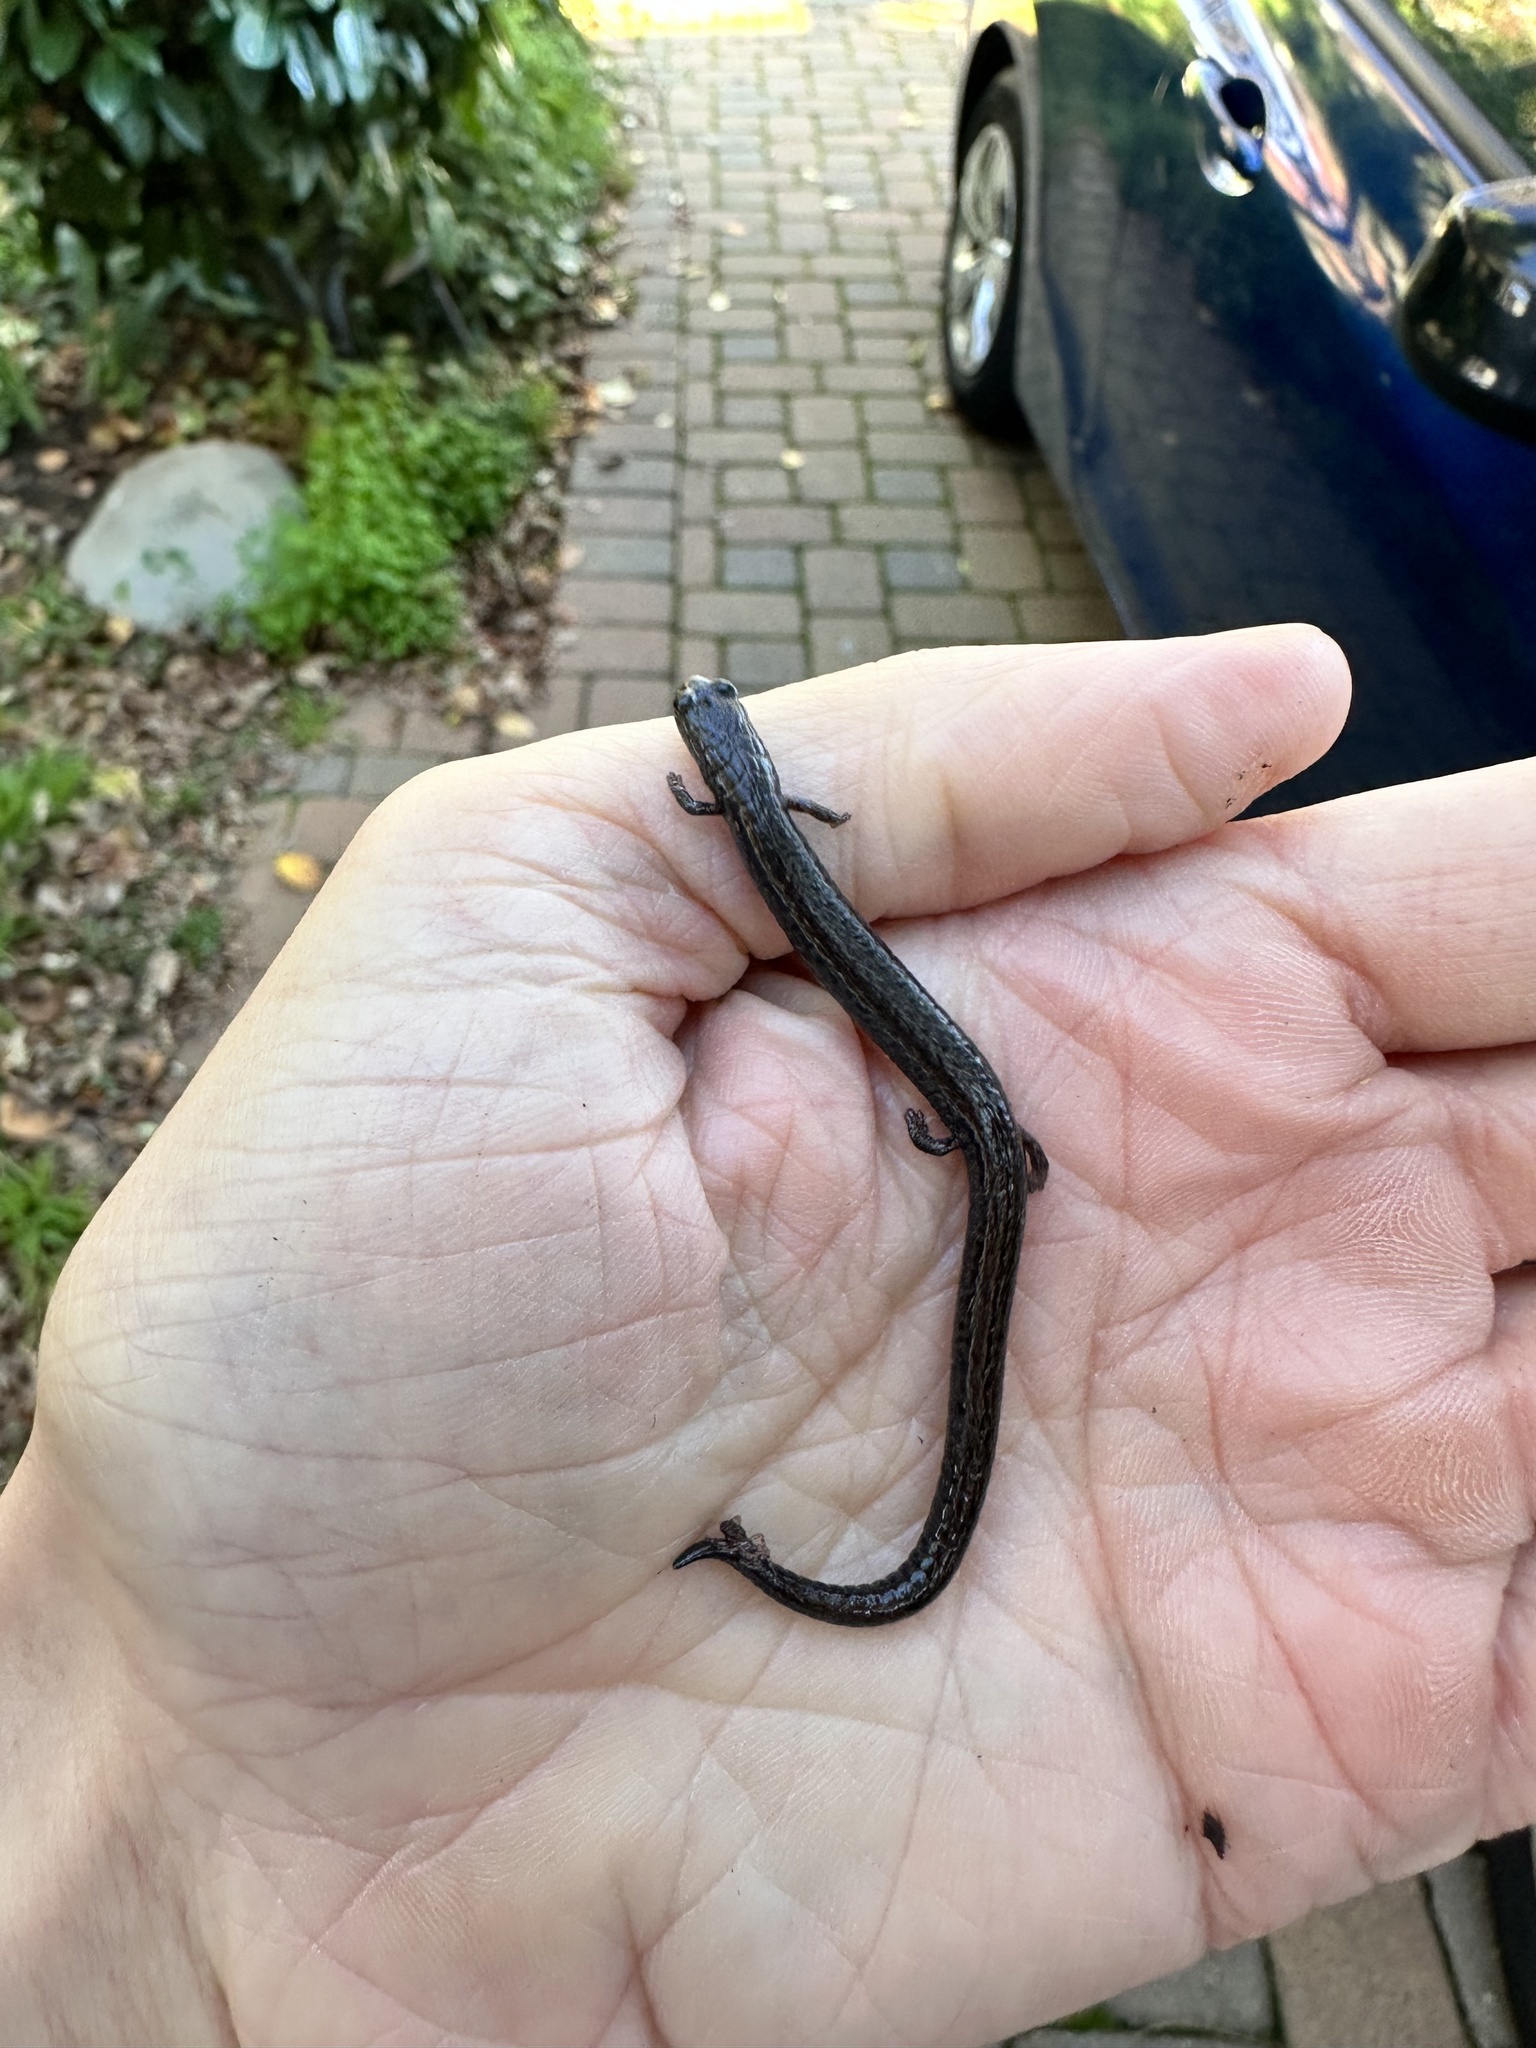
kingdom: Animalia
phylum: Chordata
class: Amphibia
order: Caudata
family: Plethodontidae
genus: Batrachoseps
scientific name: Batrachoseps attenuatus
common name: California slender salamander
